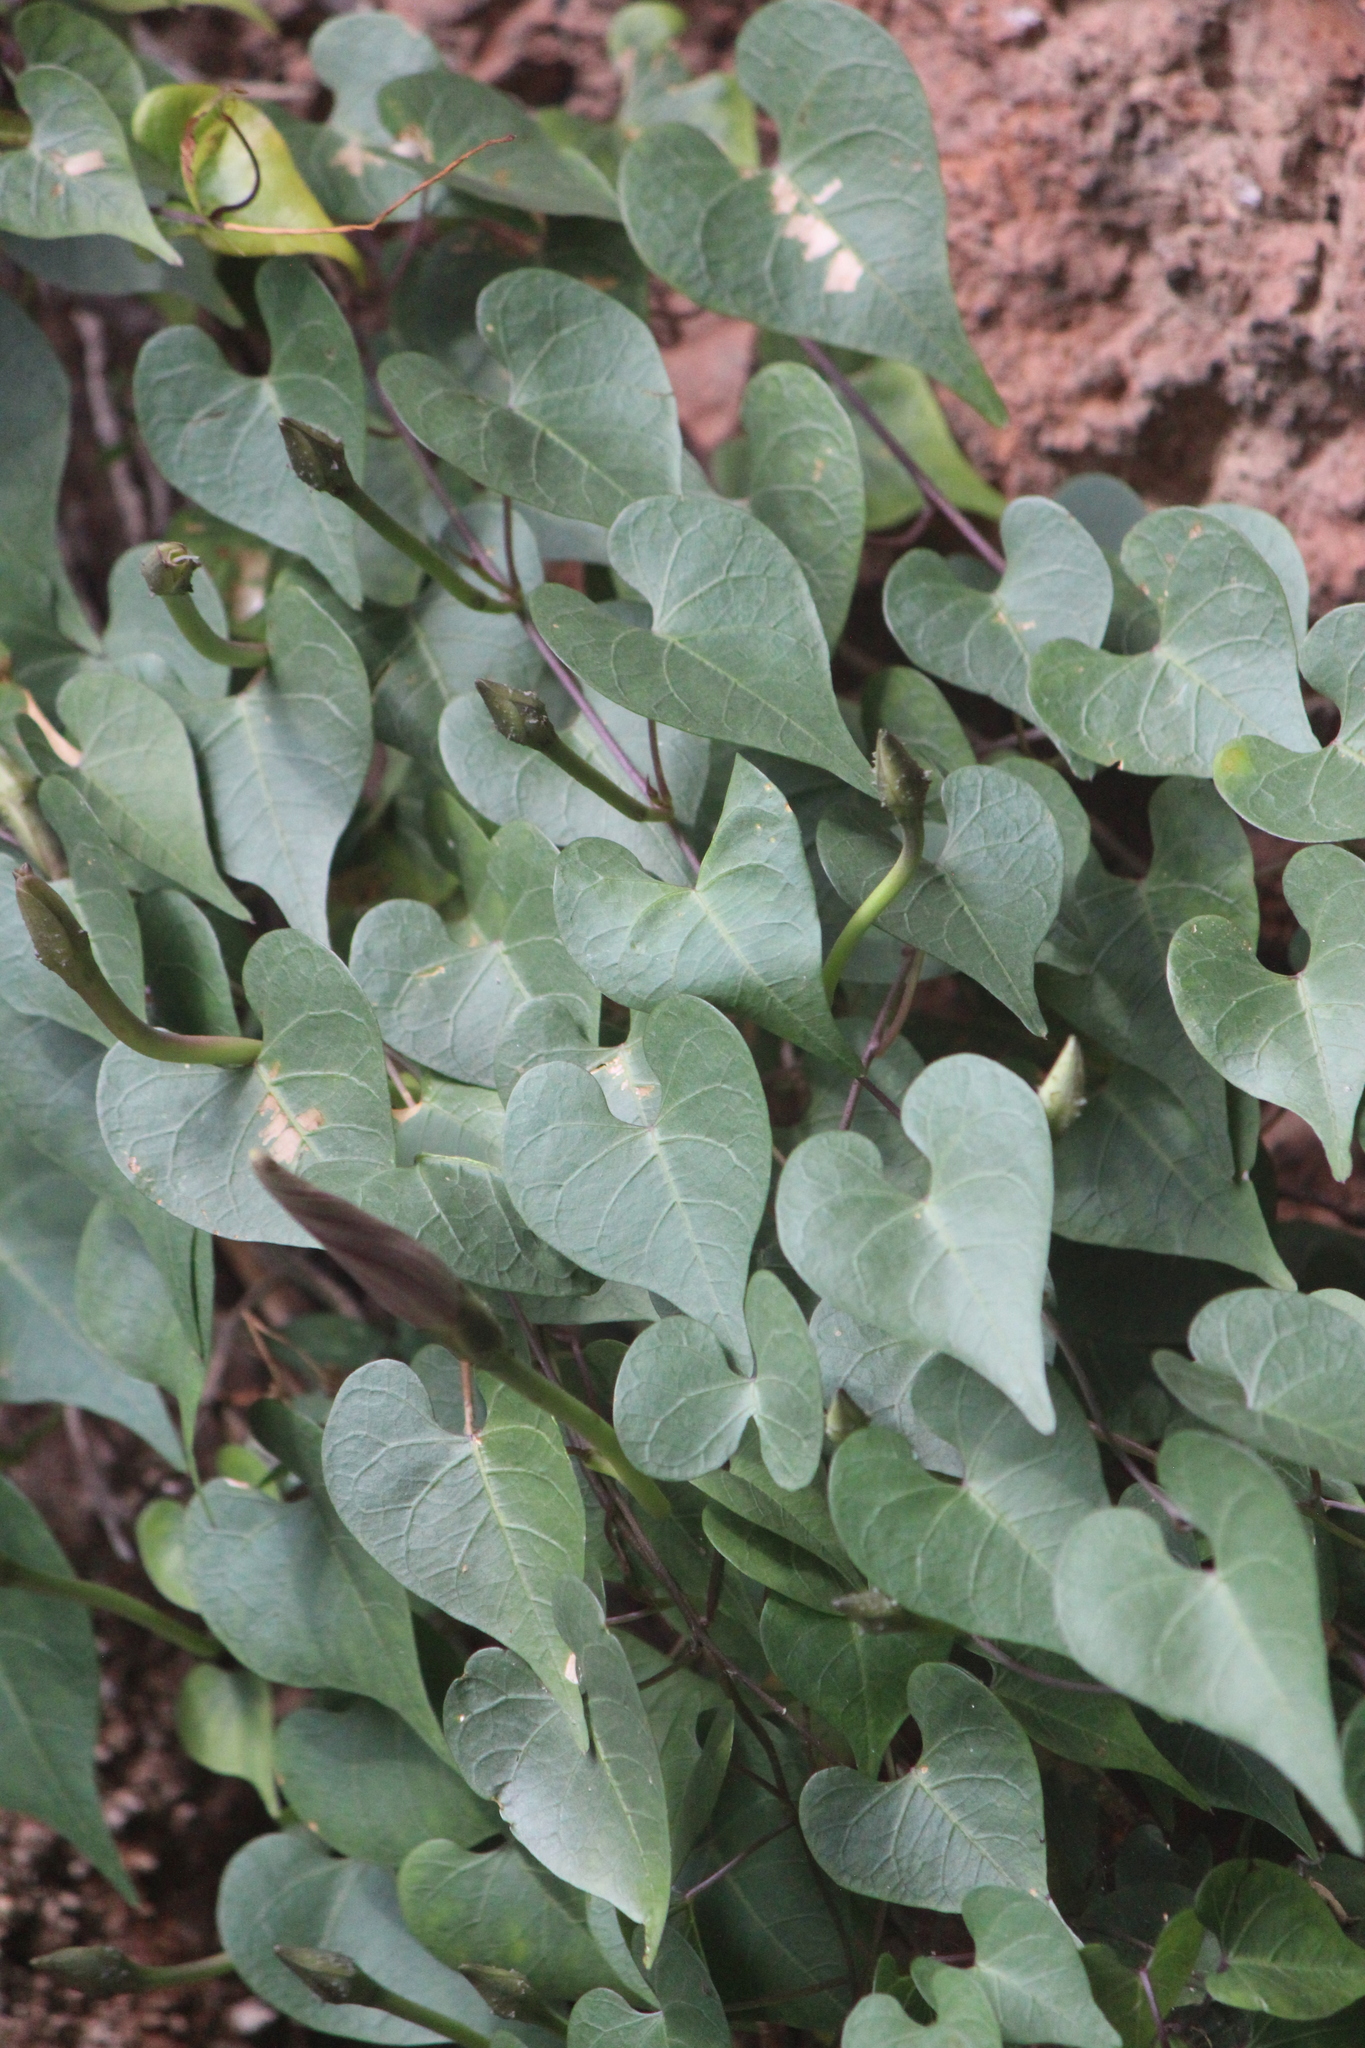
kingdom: Plantae
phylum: Tracheophyta
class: Magnoliopsida
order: Solanales
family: Convolvulaceae
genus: Ipomoea
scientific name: Ipomoea lozanii
